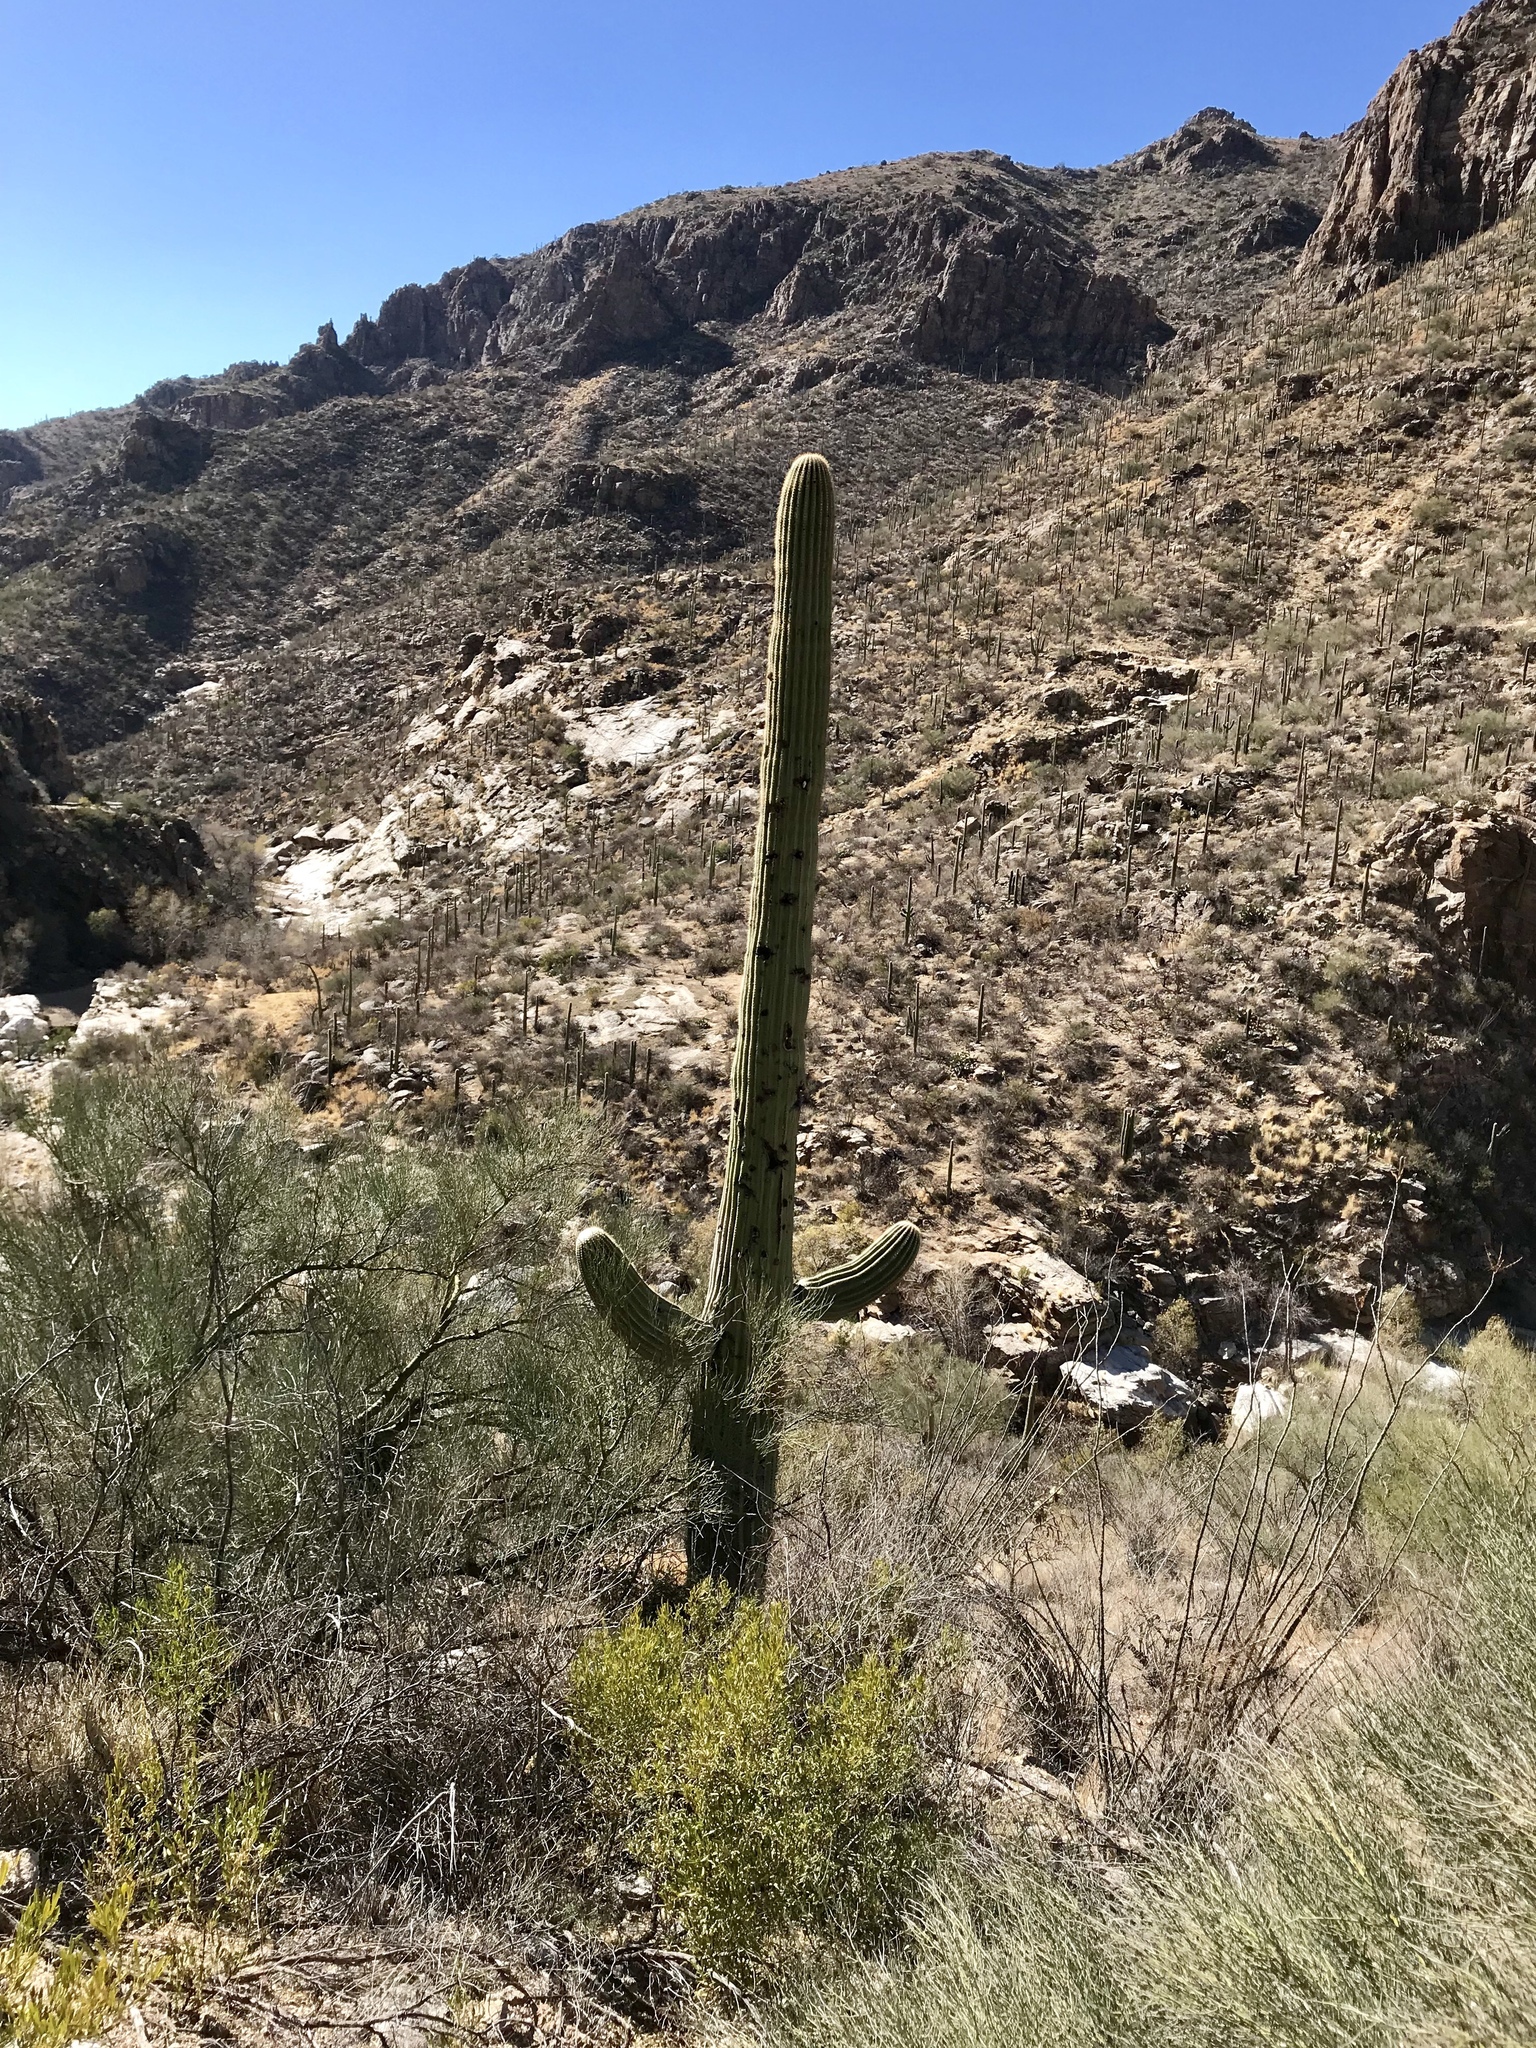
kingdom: Plantae
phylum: Tracheophyta
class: Magnoliopsida
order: Caryophyllales
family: Cactaceae
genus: Carnegiea
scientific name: Carnegiea gigantea
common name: Saguaro
